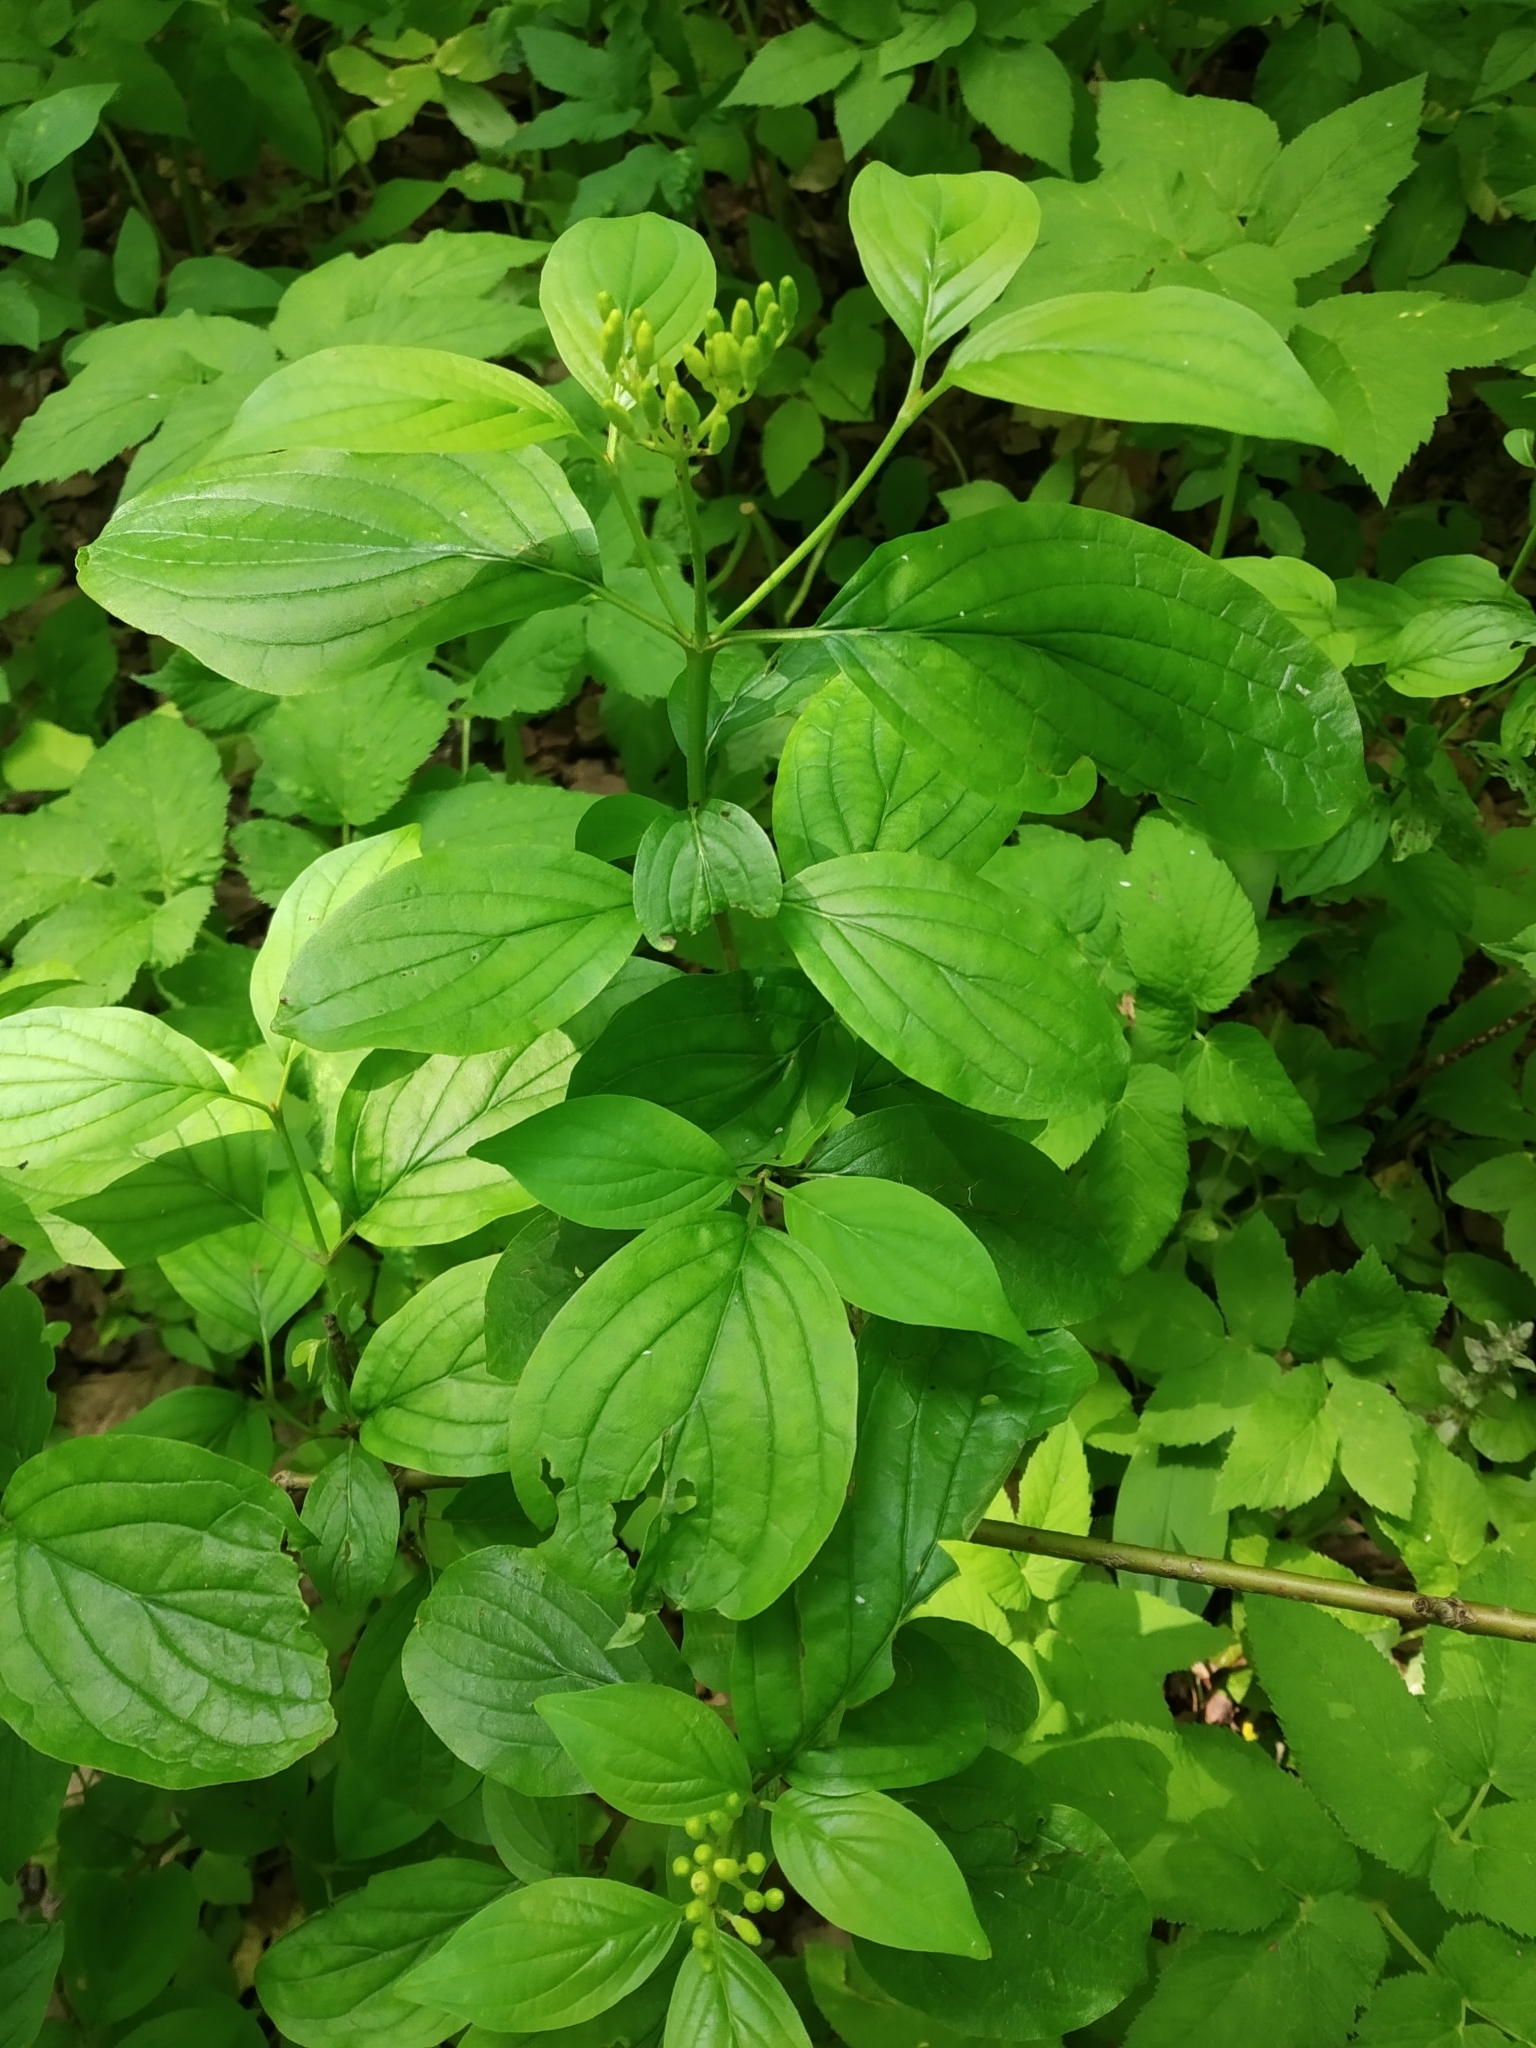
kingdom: Plantae
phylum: Tracheophyta
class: Magnoliopsida
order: Cornales
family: Cornaceae
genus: Cornus
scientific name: Cornus sanguinea
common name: Dogwood
